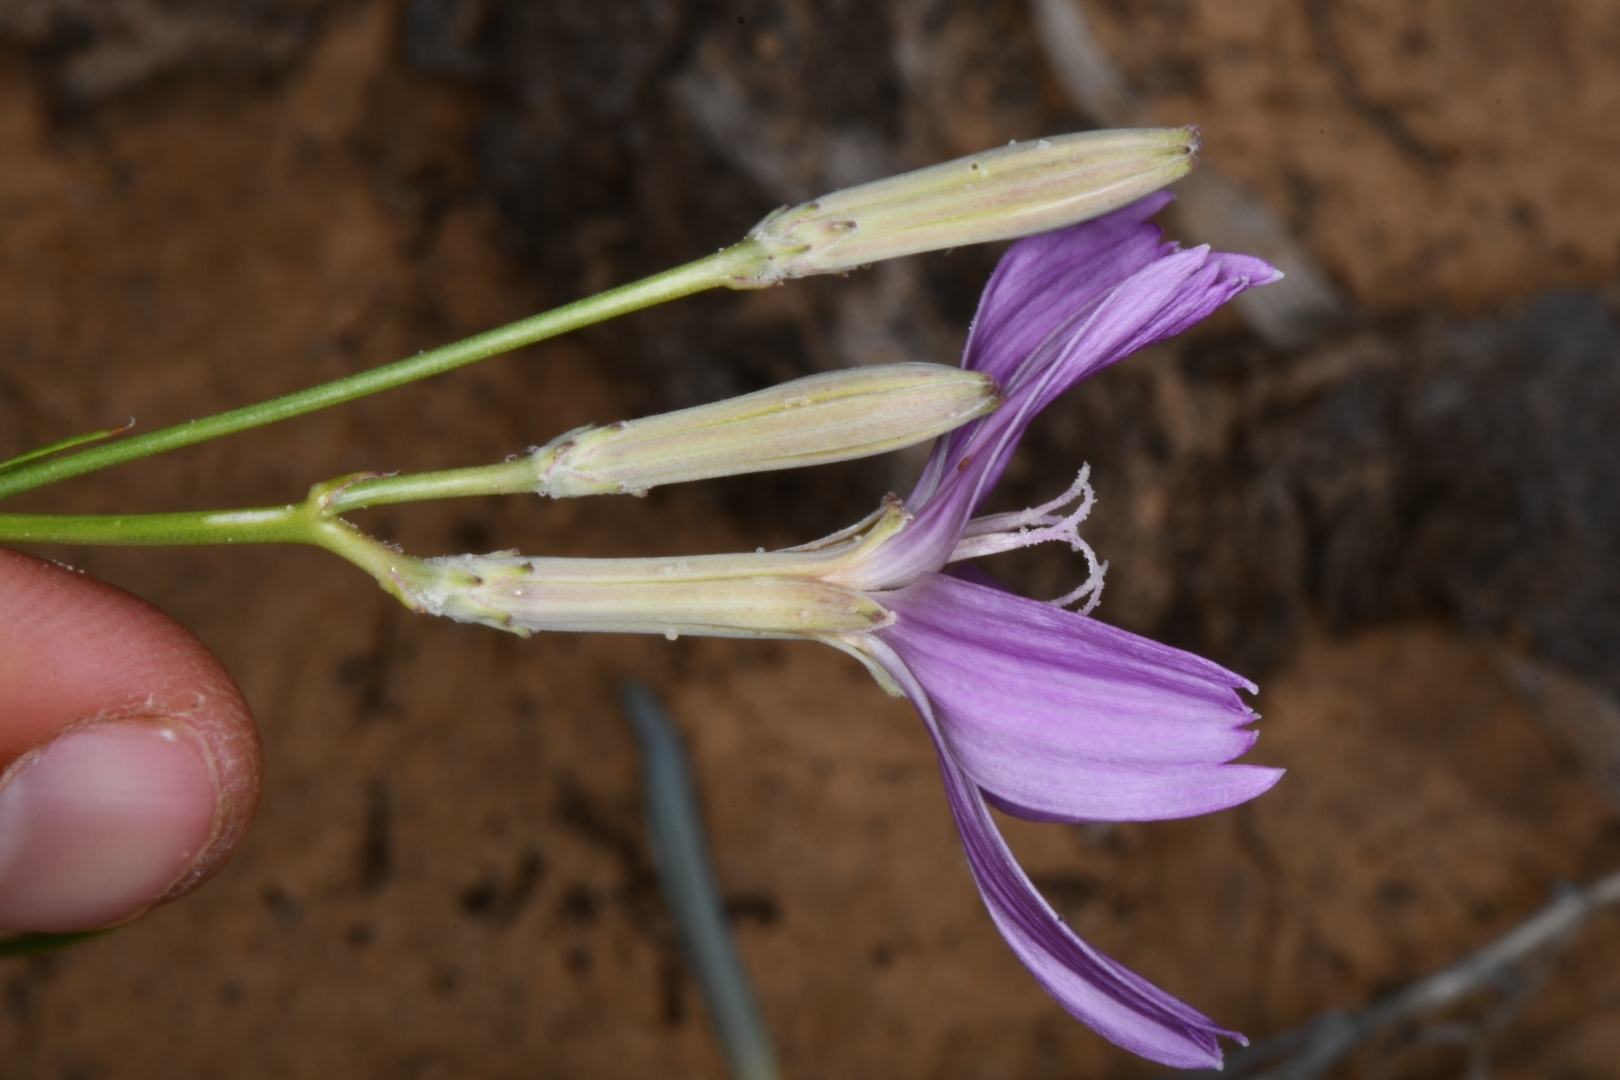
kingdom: Plantae
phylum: Tracheophyta
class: Magnoliopsida
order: Asterales
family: Asteraceae
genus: Lygodesmia
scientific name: Lygodesmia grandiflora
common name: Showy rush-pink
